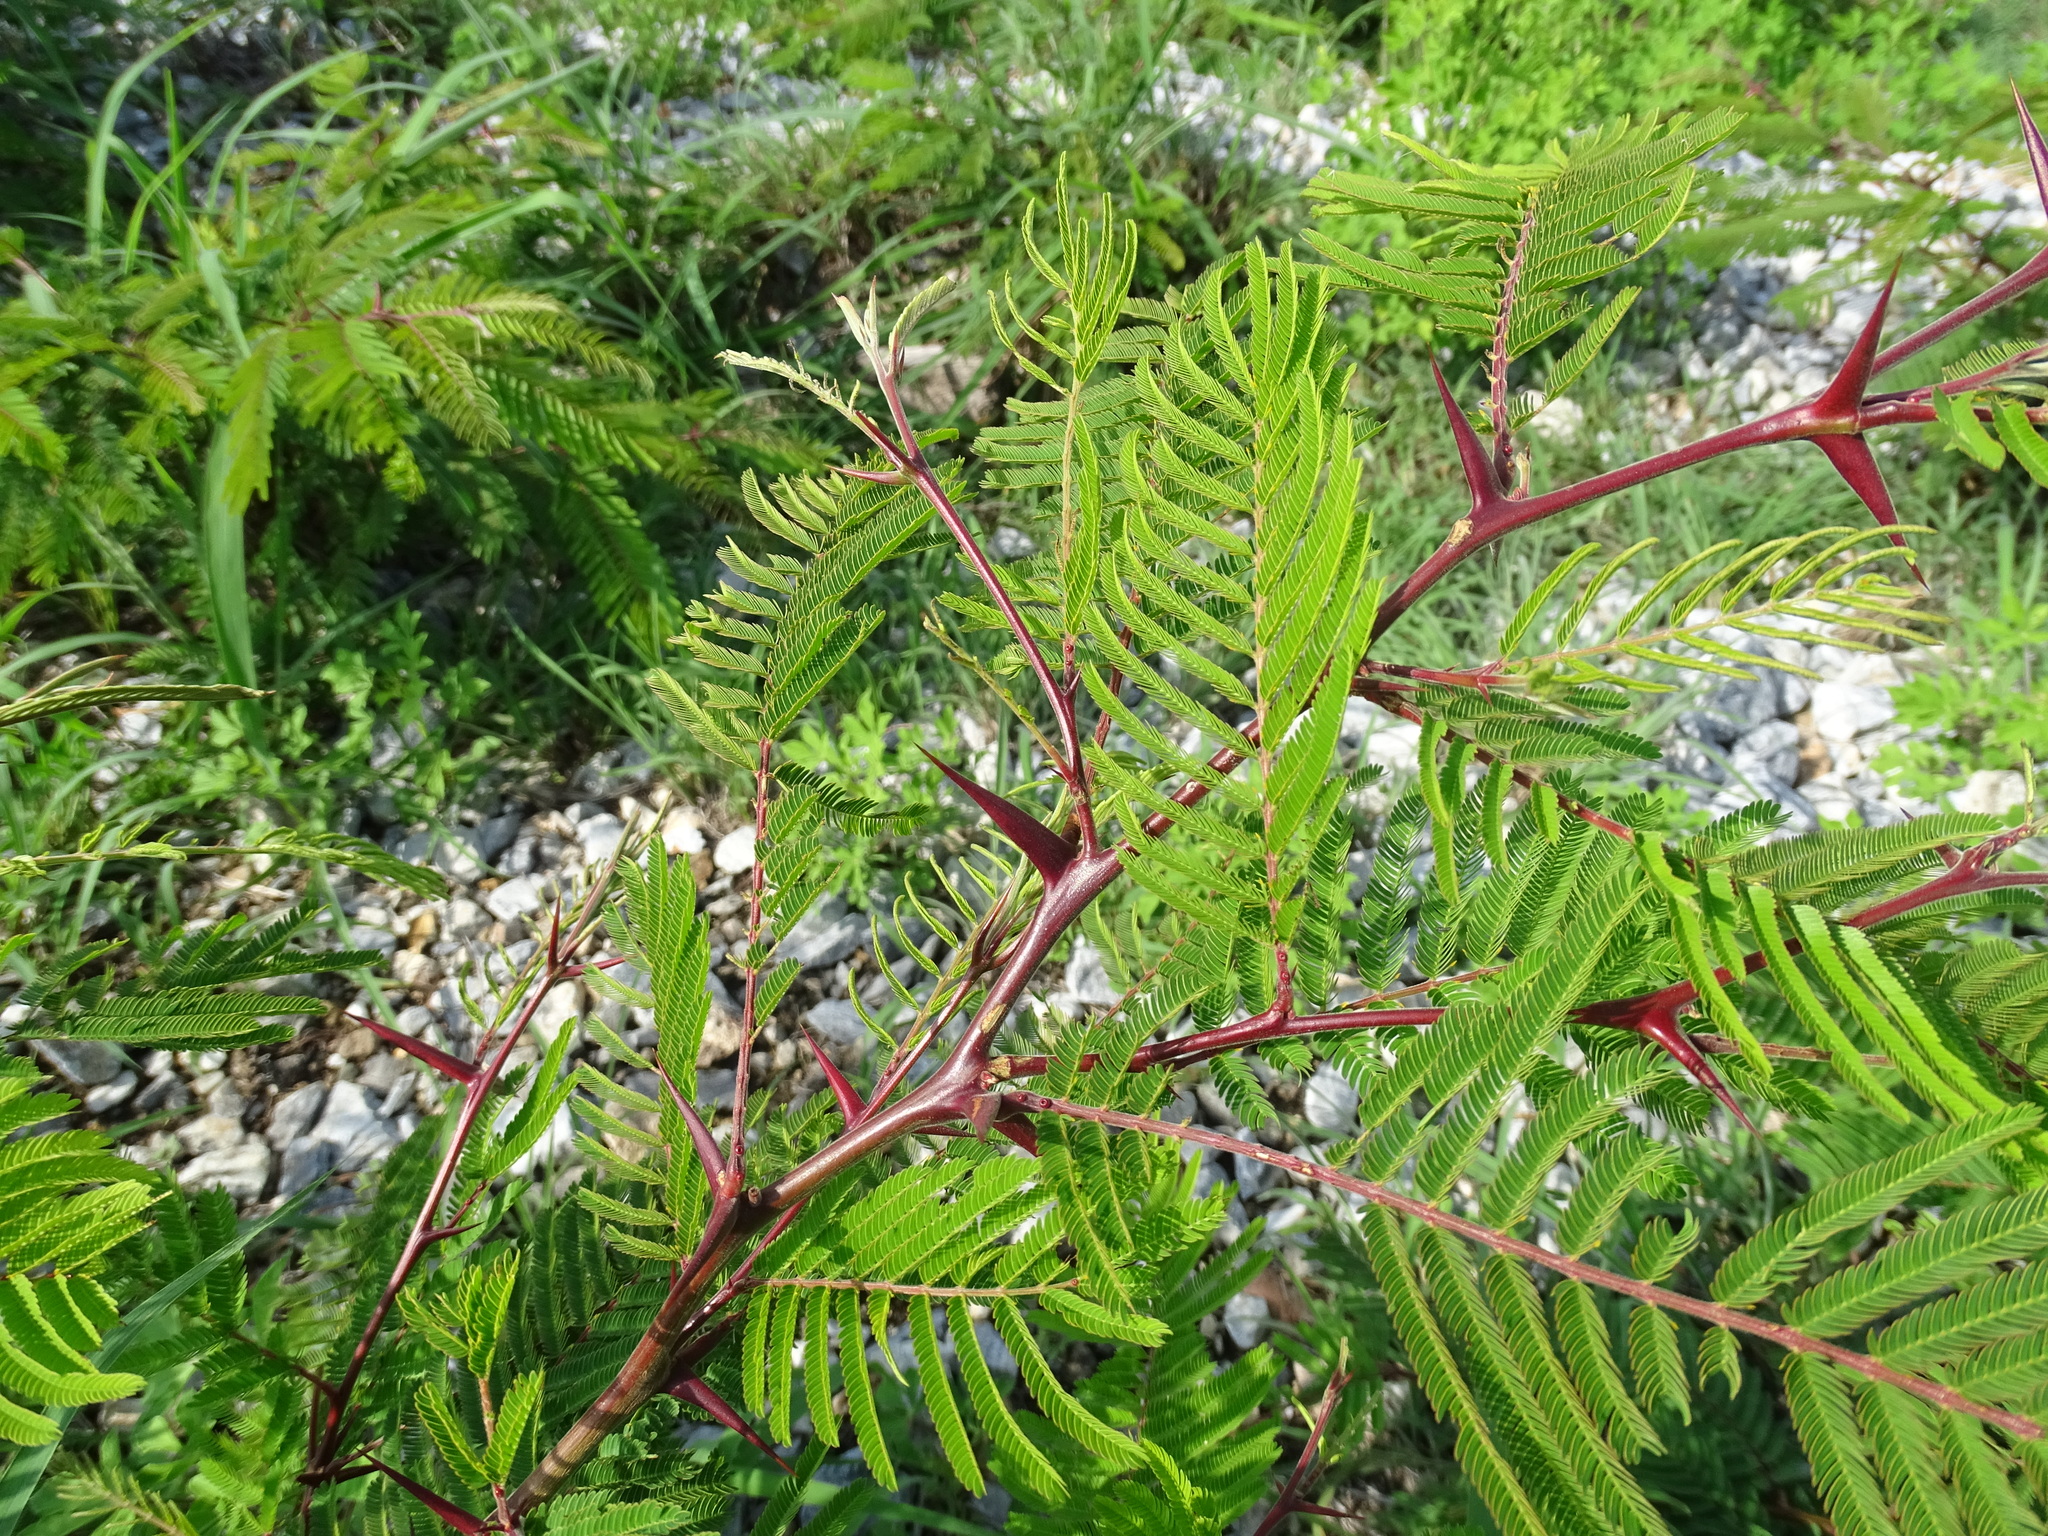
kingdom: Plantae
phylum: Tracheophyta
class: Magnoliopsida
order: Fabales
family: Fabaceae
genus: Vachellia
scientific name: Vachellia campechiana
